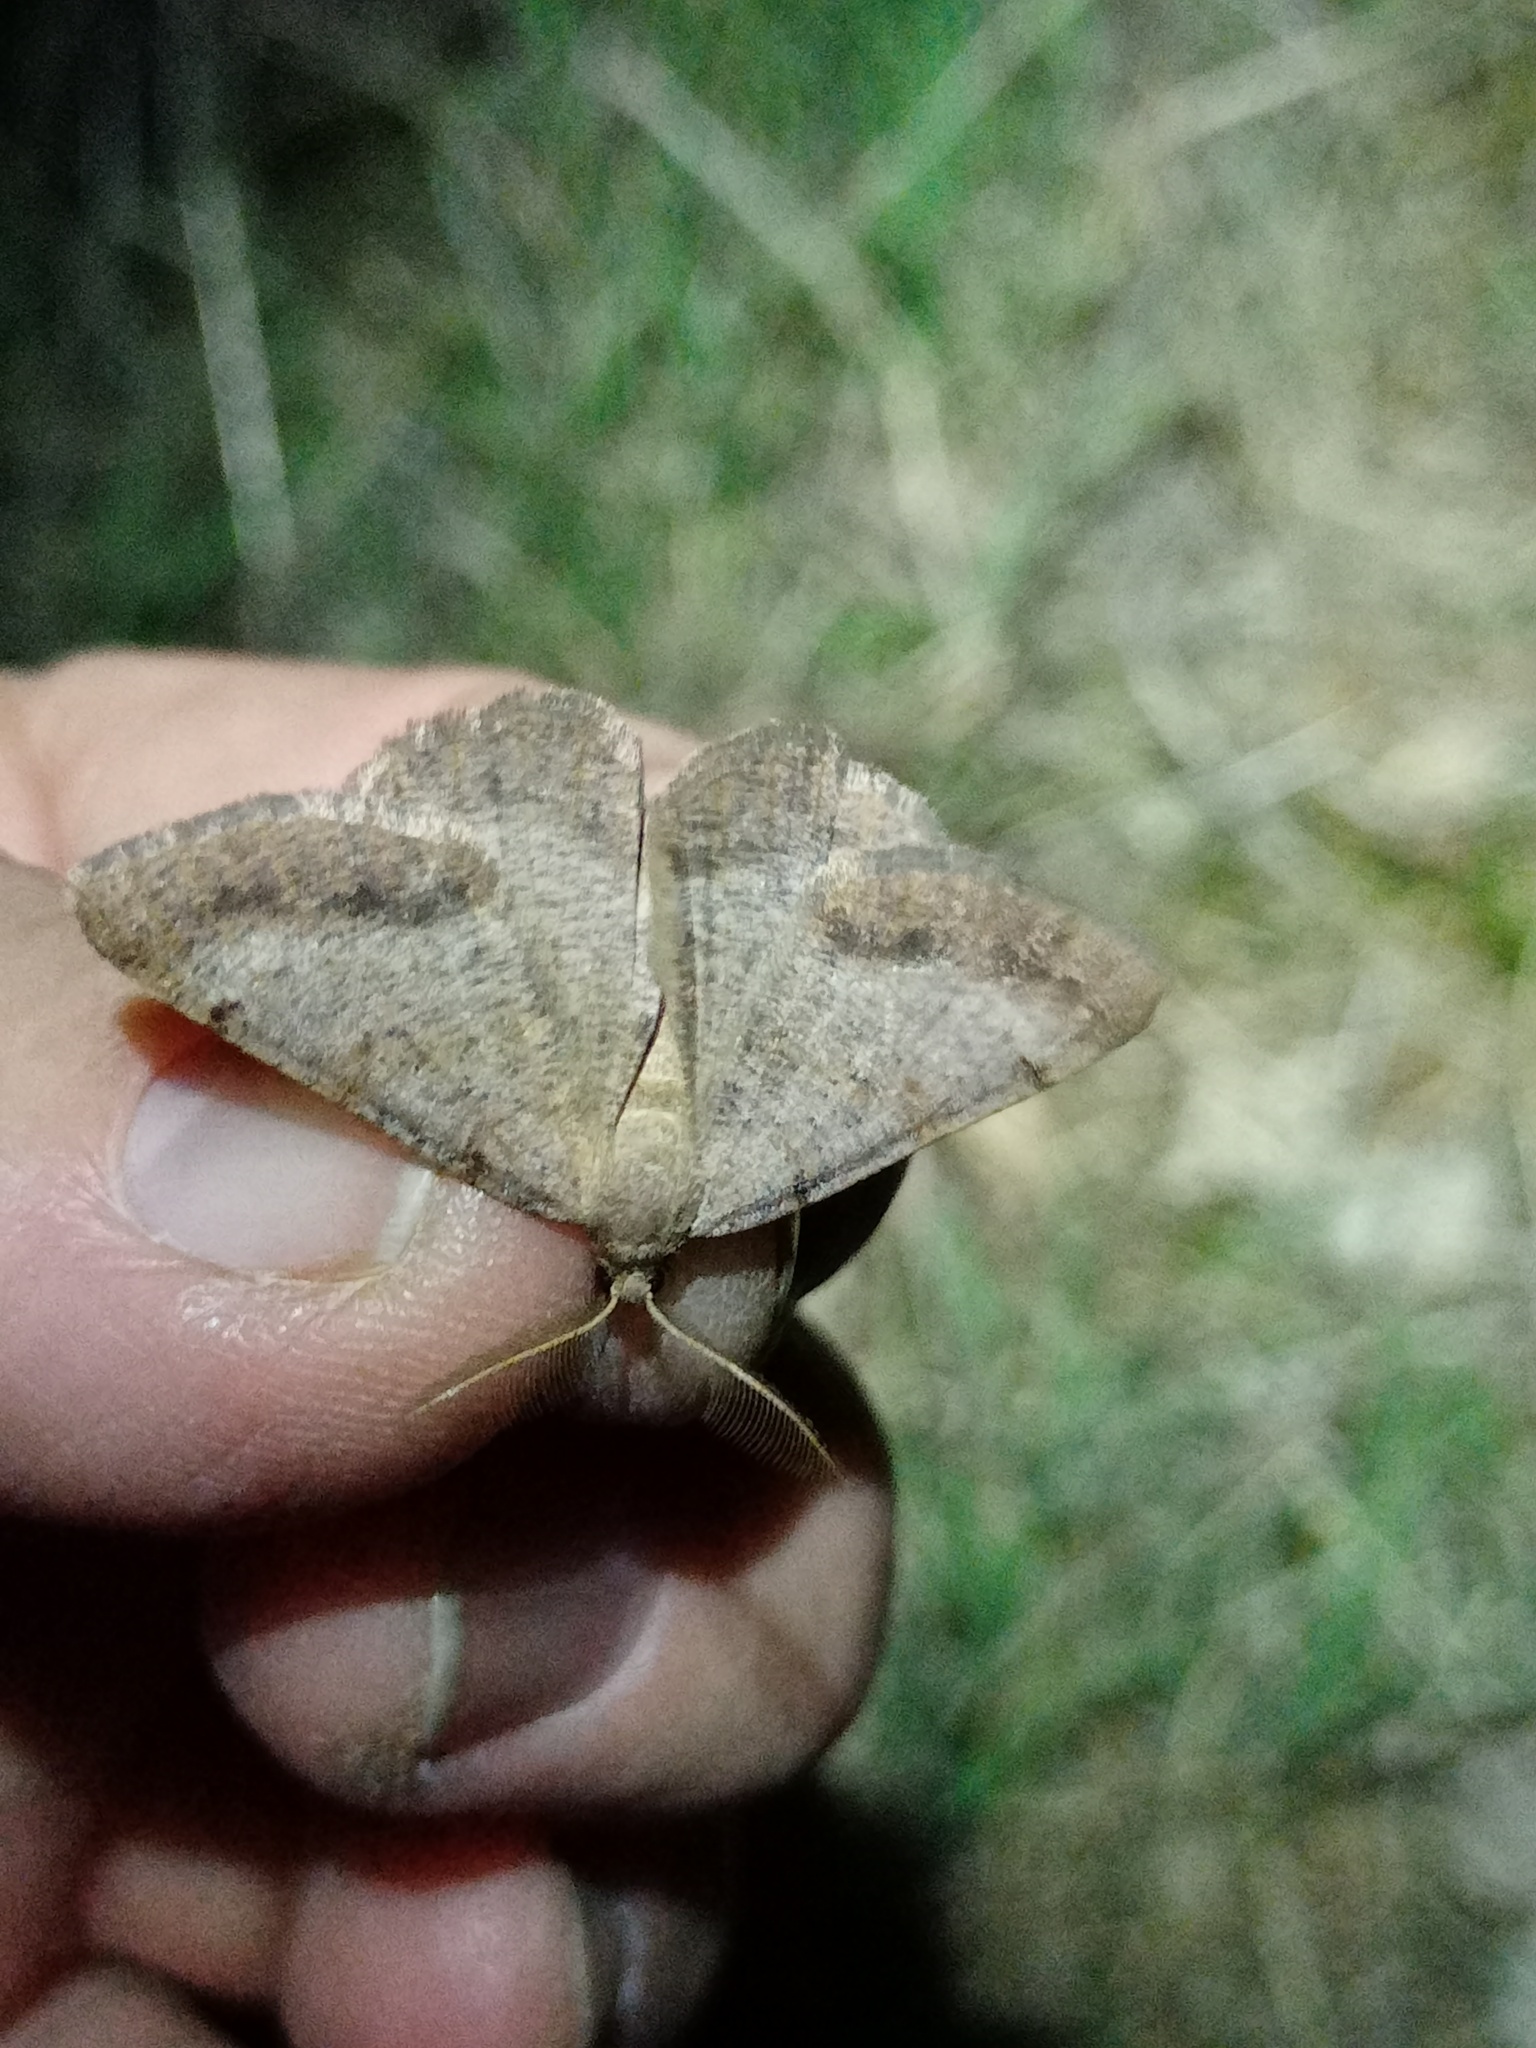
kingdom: Animalia
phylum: Arthropoda
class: Insecta
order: Lepidoptera
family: Geometridae
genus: Selidosema
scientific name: Selidosema brunnearia
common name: Bordered grey
